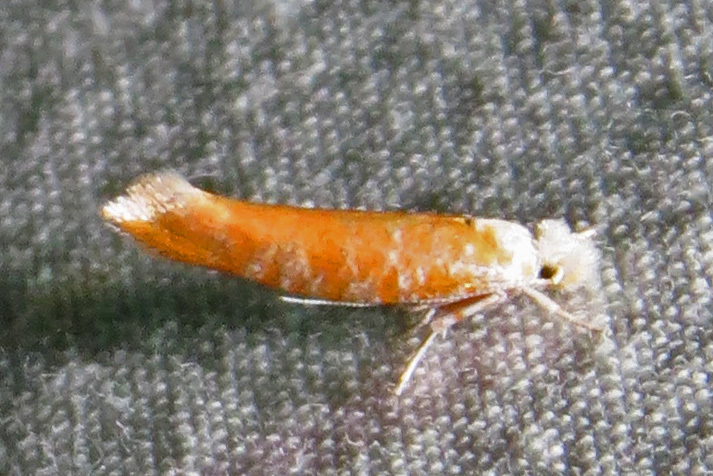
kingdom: Animalia
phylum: Arthropoda
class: Insecta
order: Lepidoptera
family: Yponomeutidae
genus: Zelleria
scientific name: Zelleria retiniella
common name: Brindled zelleria
